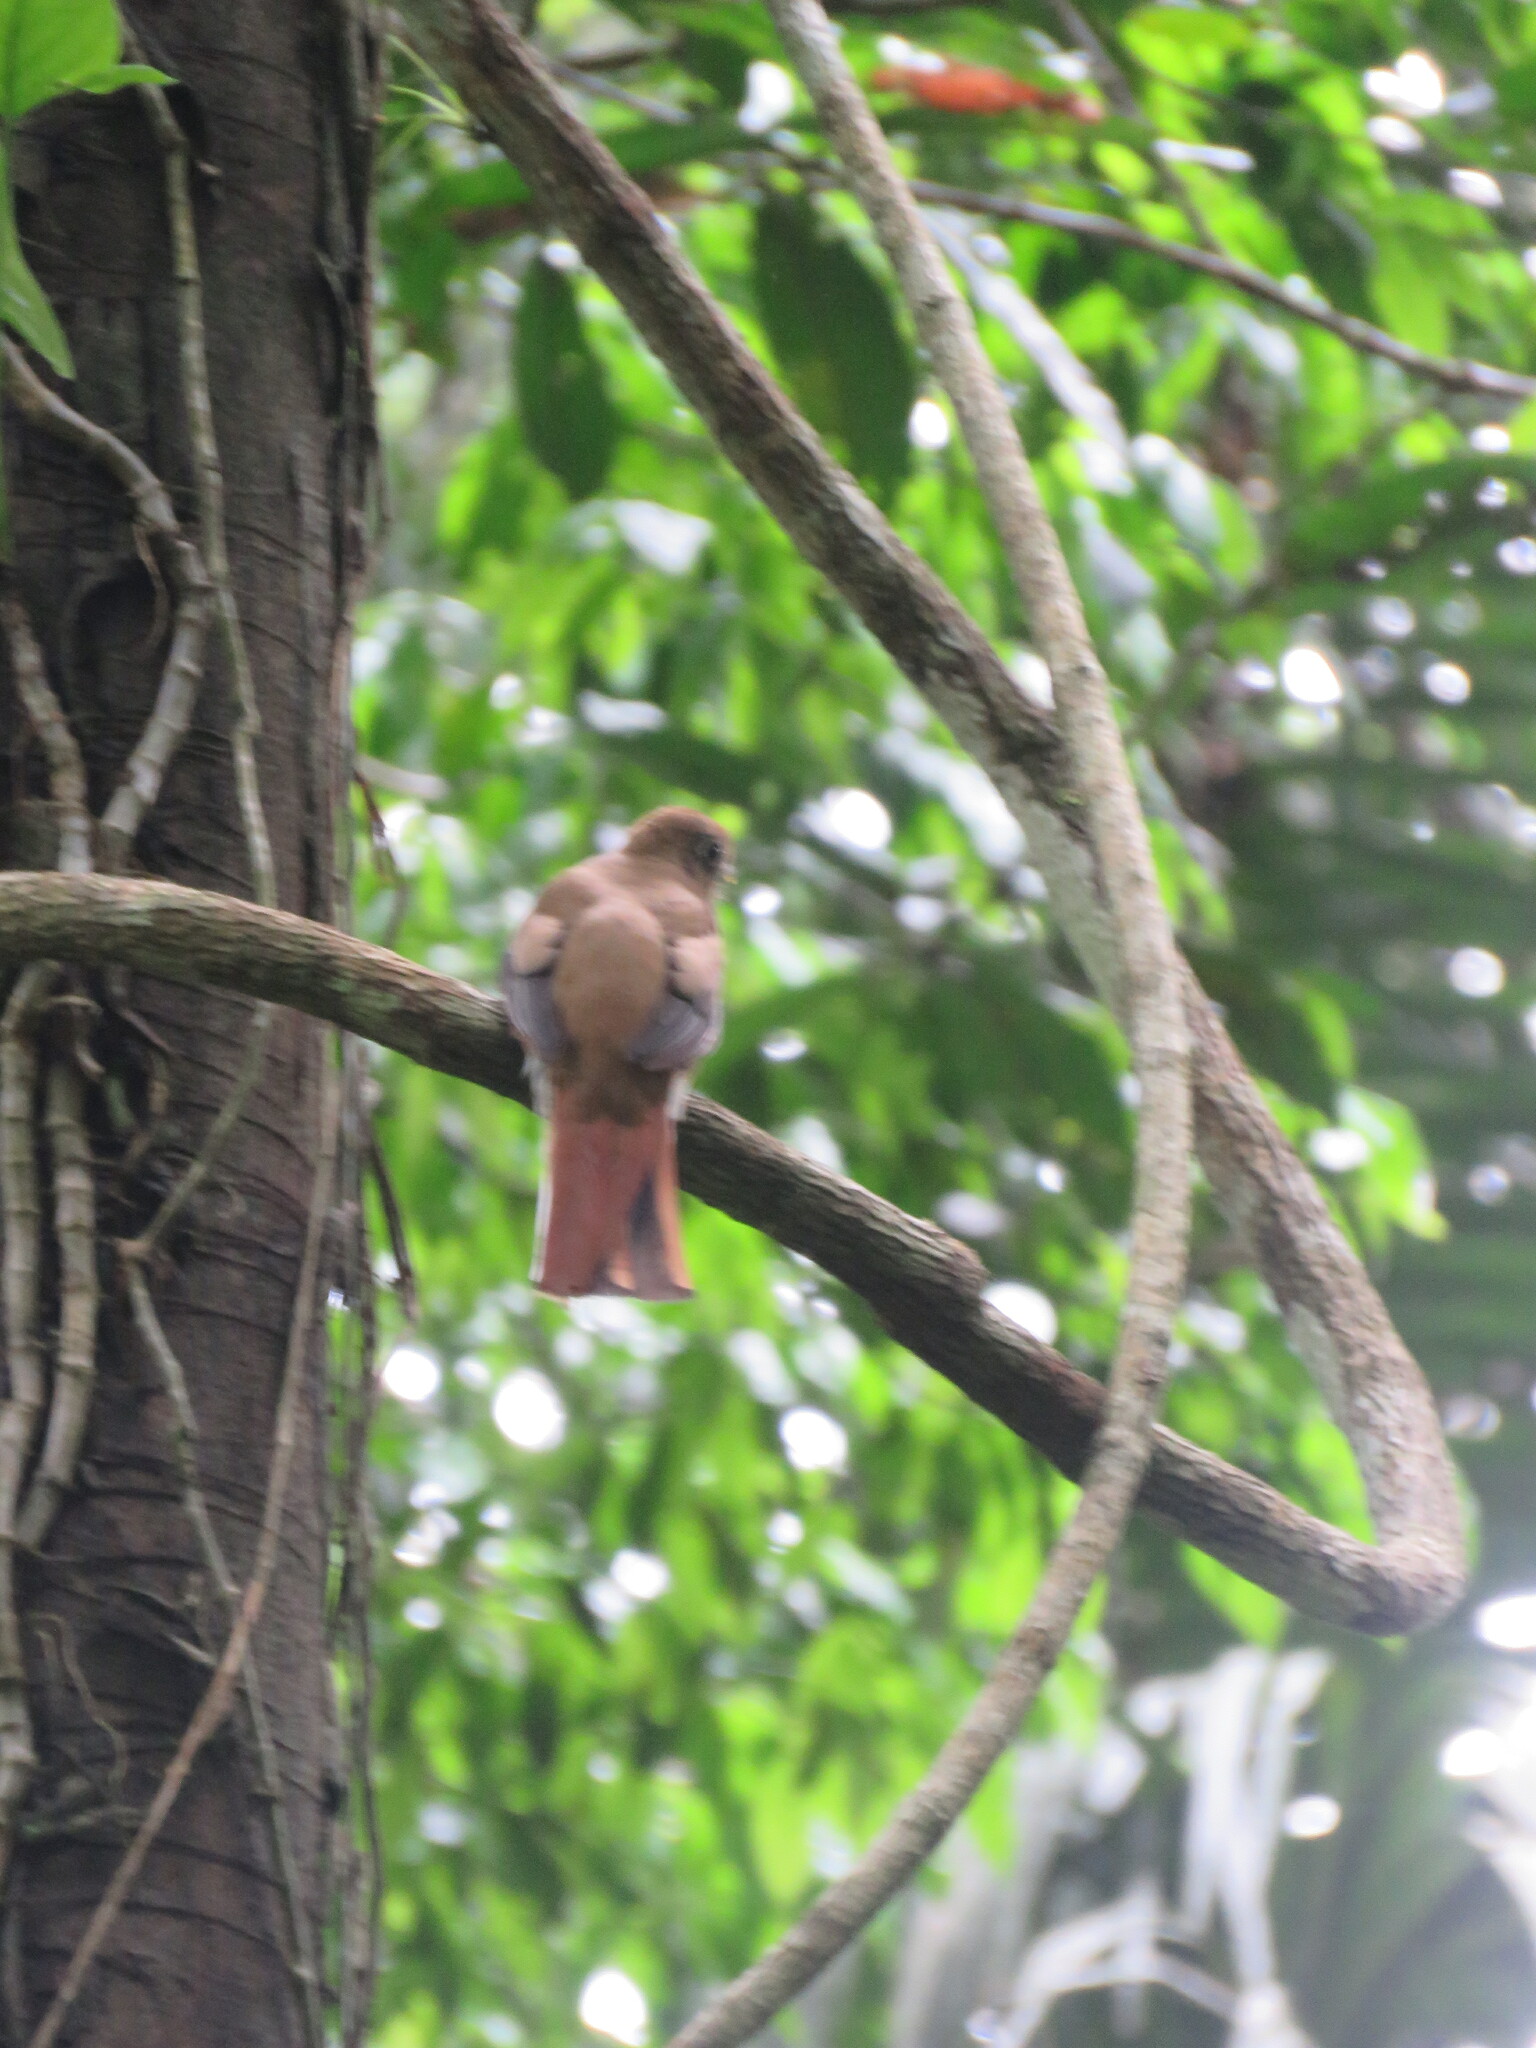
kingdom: Animalia
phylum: Chordata
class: Aves
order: Trogoniformes
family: Trogonidae
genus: Trogon
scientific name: Trogon collaris
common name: Collared trogon
